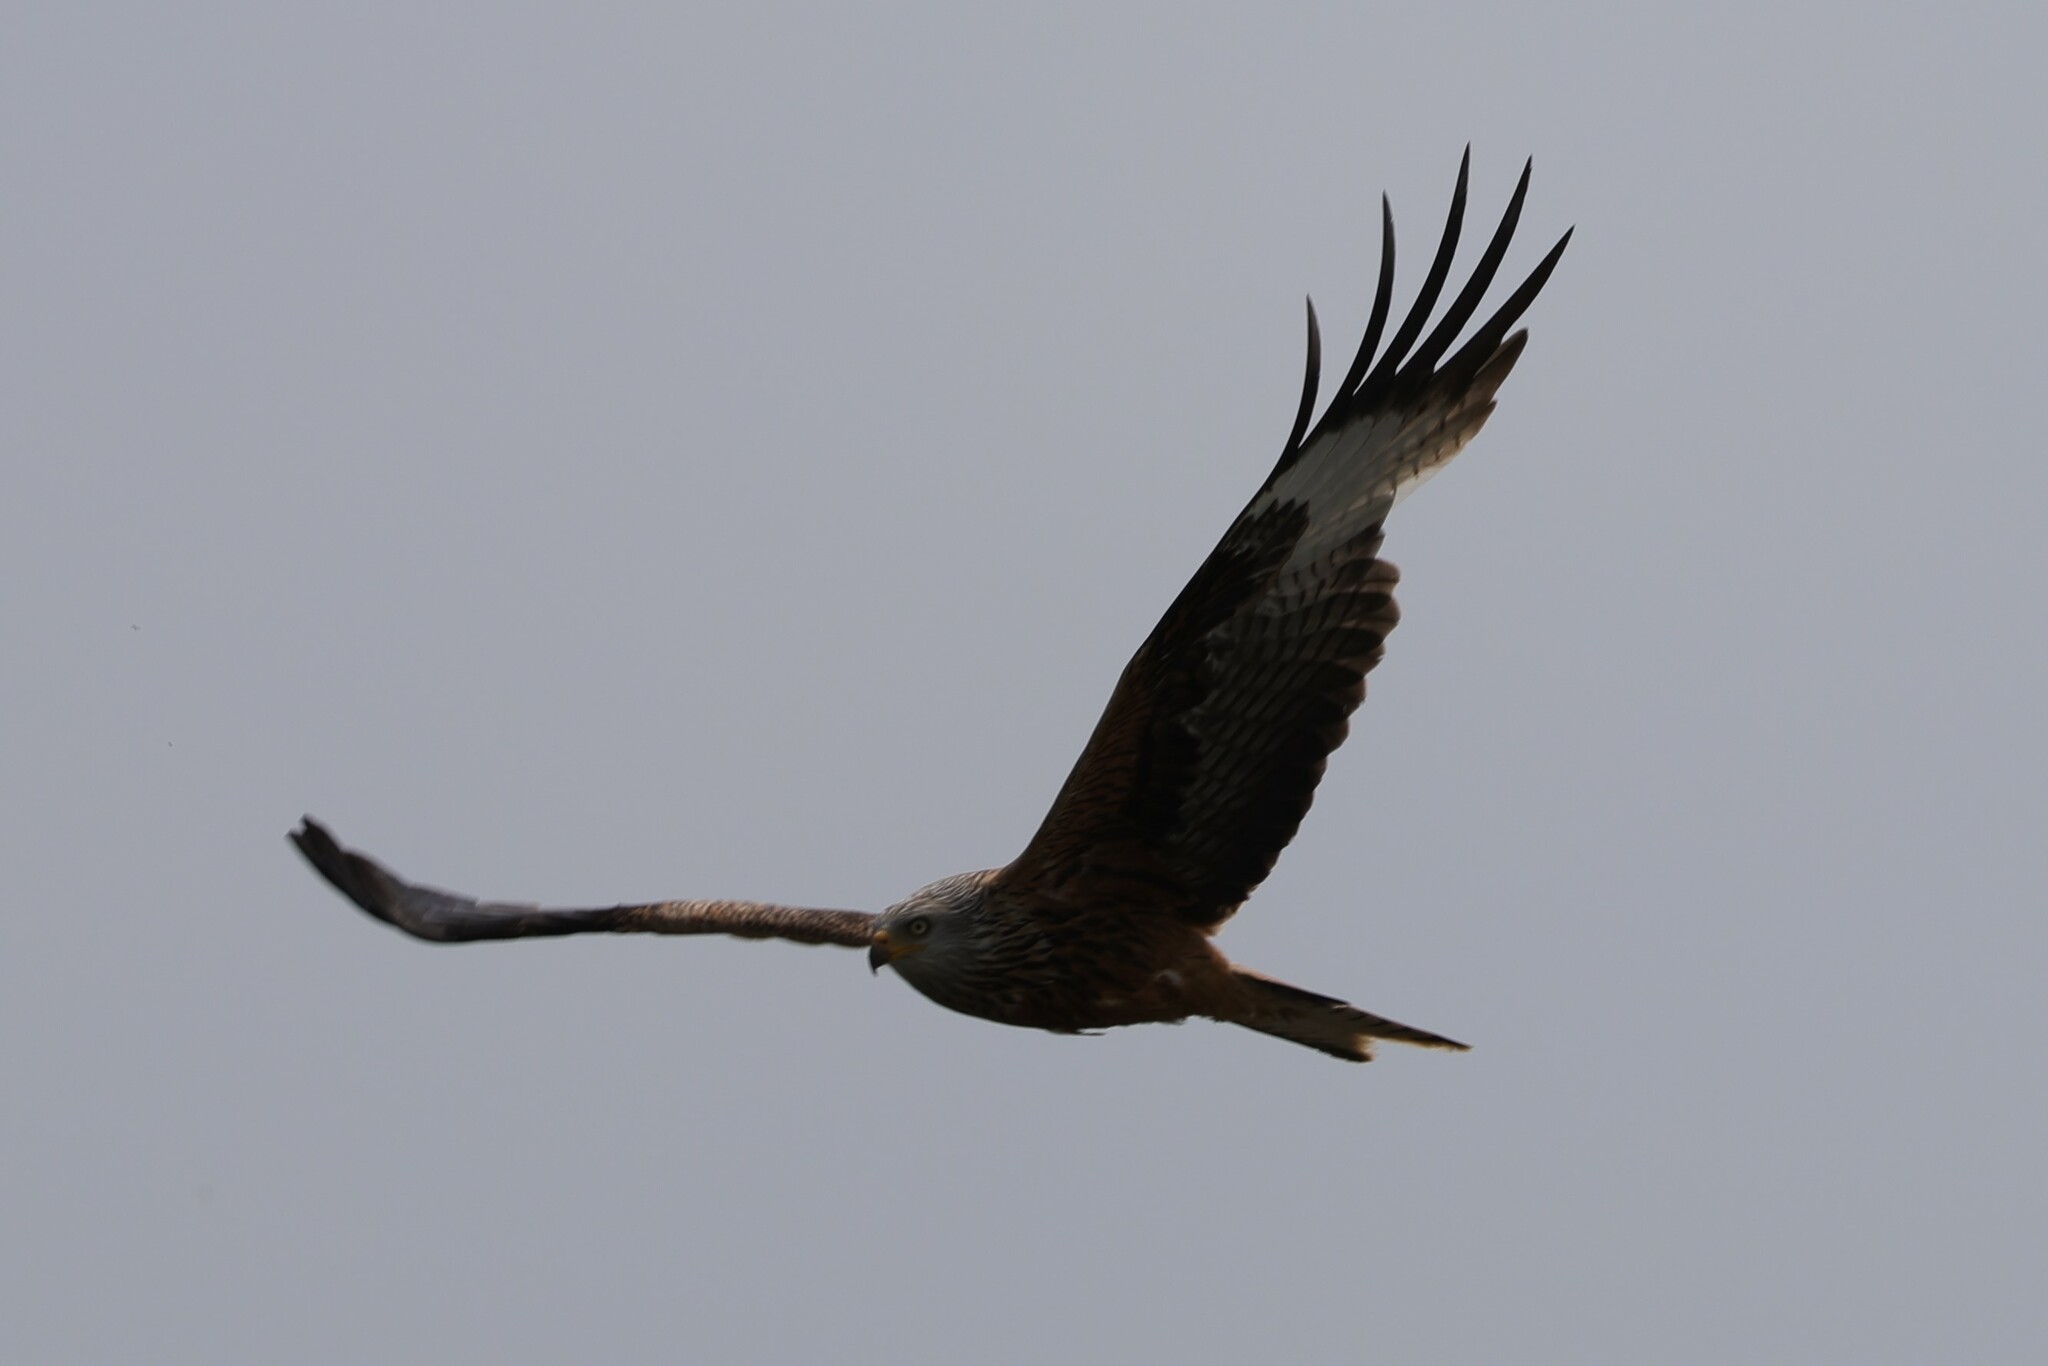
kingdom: Animalia
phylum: Chordata
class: Aves
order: Accipitriformes
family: Accipitridae
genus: Milvus
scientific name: Milvus milvus
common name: Red kite
